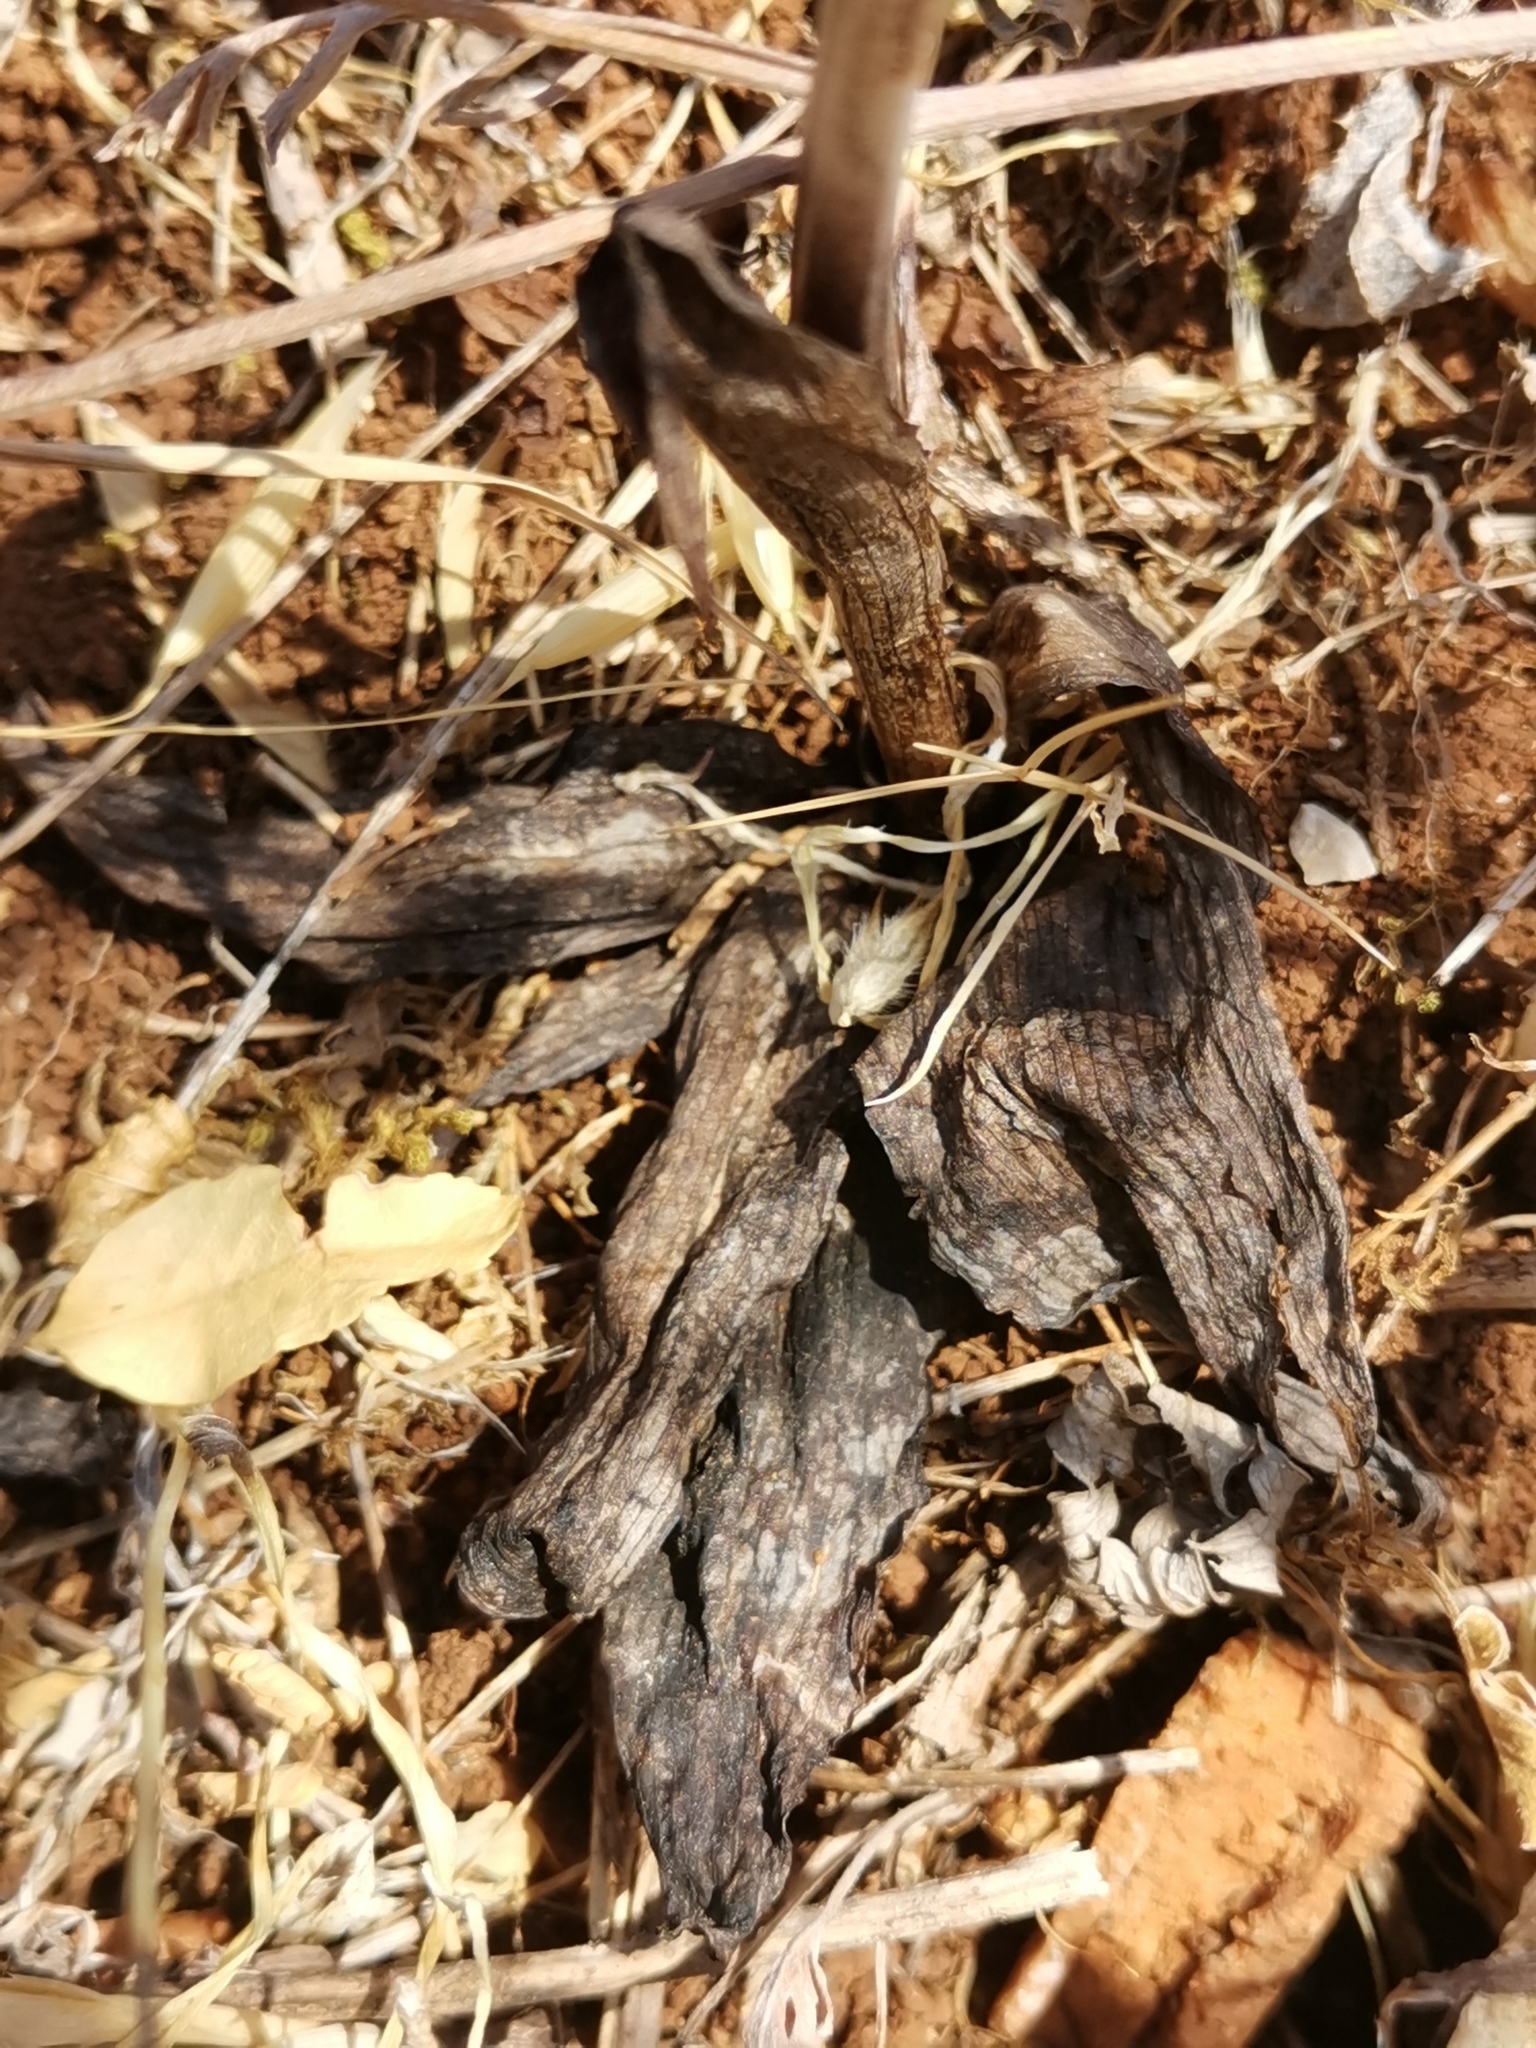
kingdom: Plantae
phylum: Tracheophyta
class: Liliopsida
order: Asparagales
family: Orchidaceae
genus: Ophrys
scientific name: Ophrys
